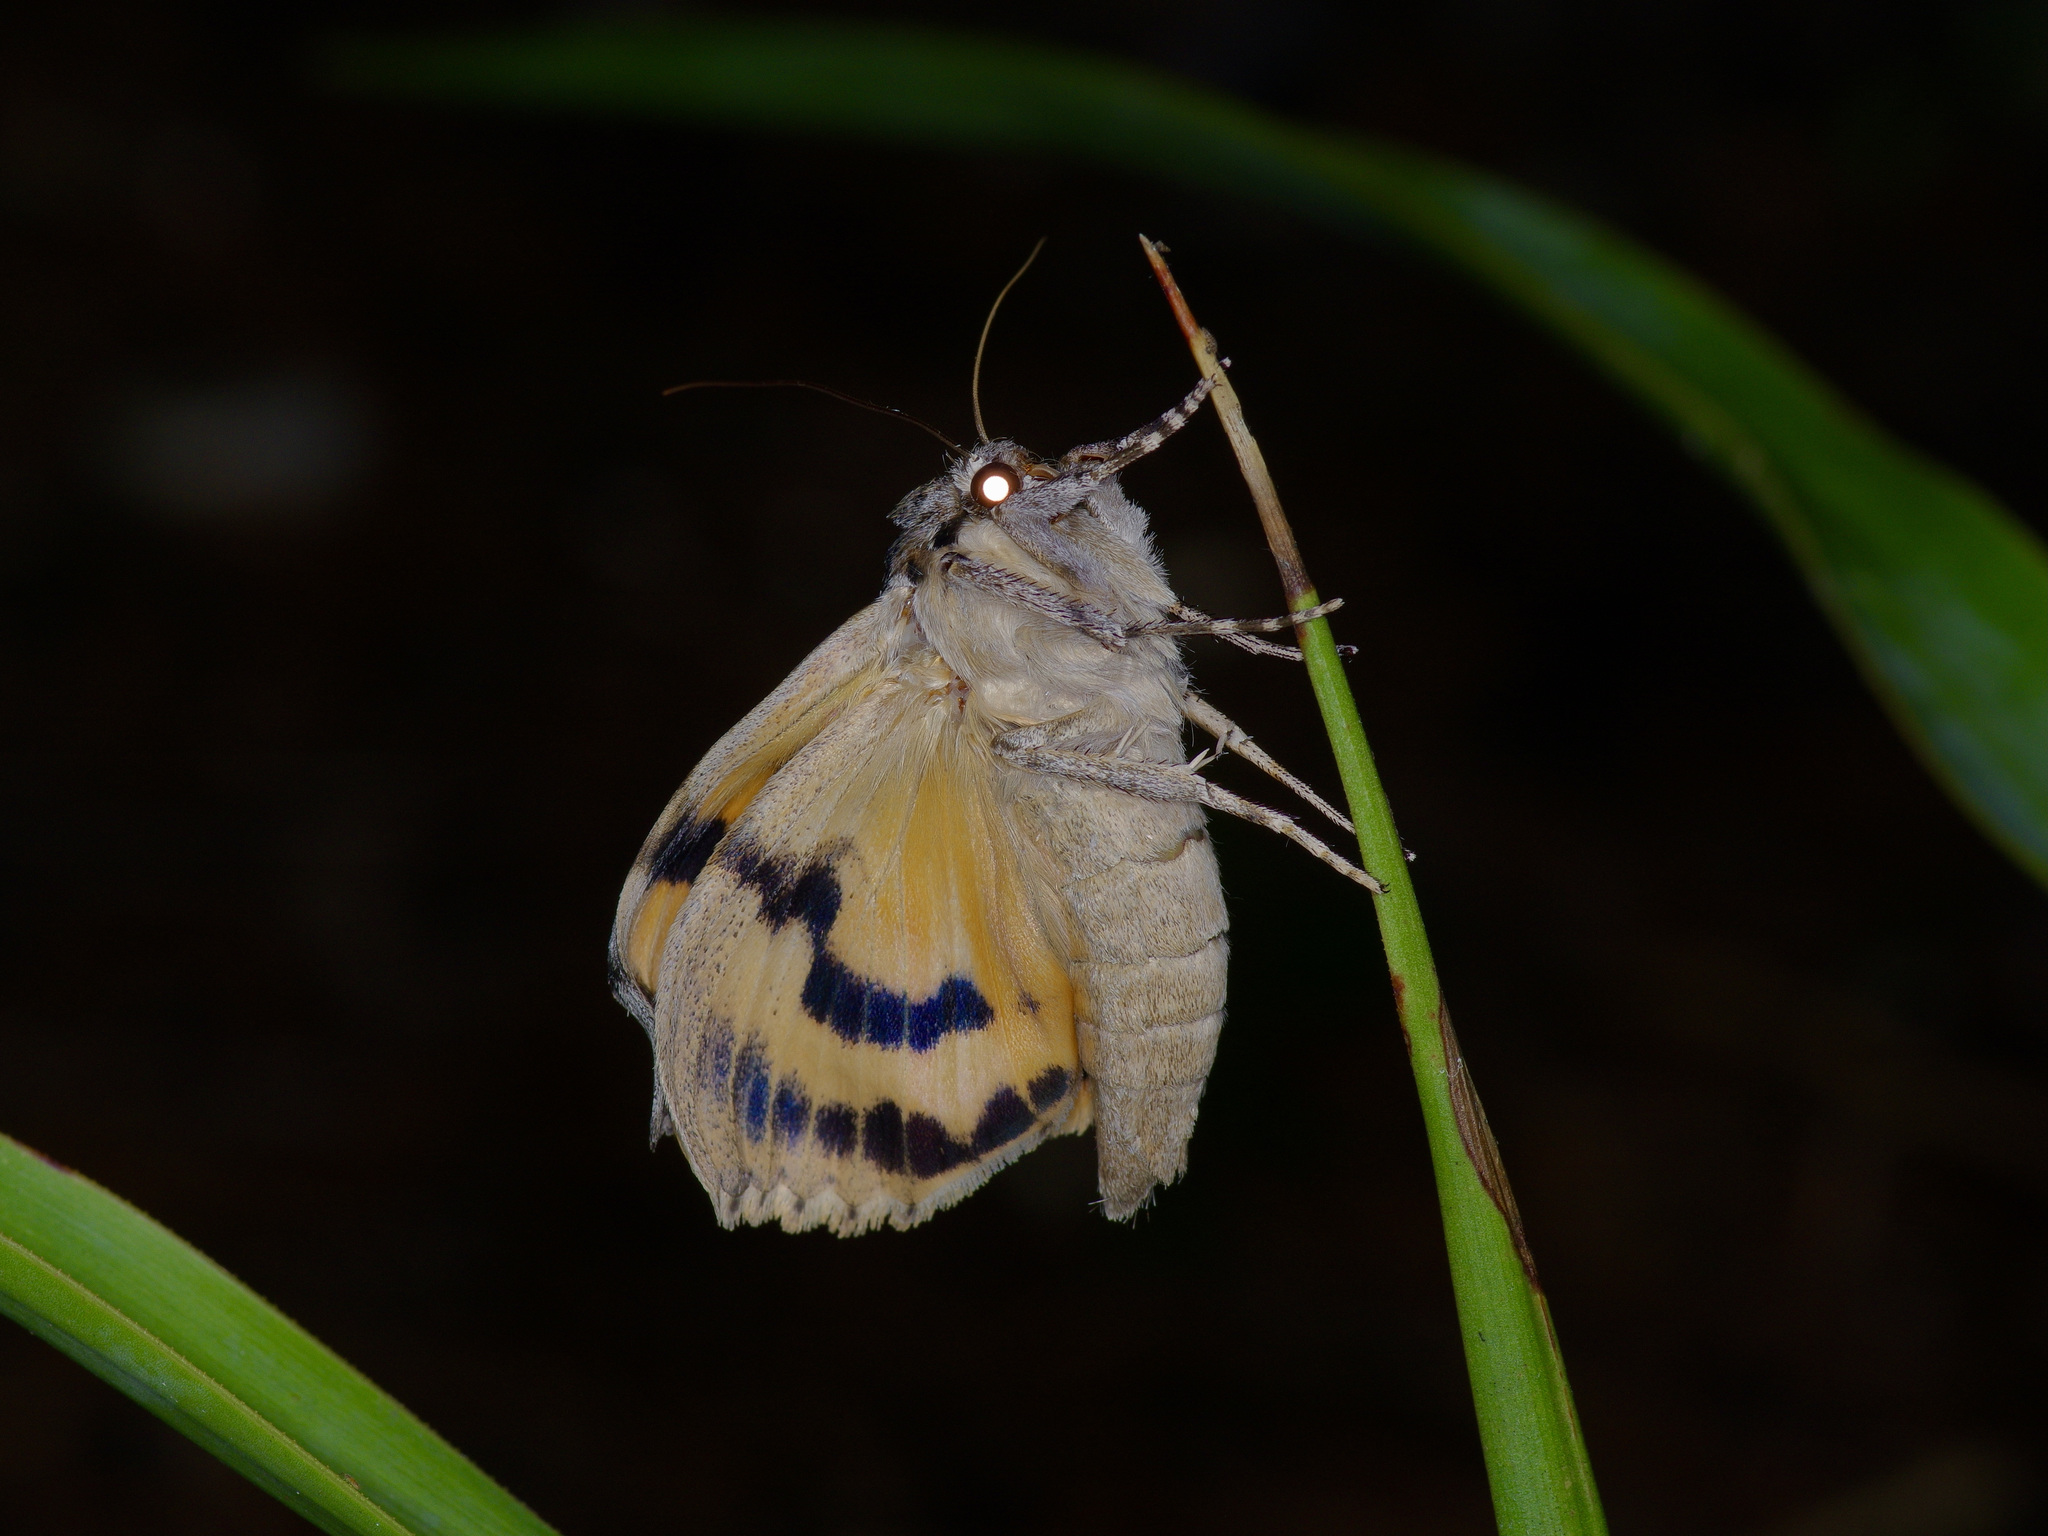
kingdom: Animalia
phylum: Arthropoda
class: Insecta
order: Lepidoptera
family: Erebidae
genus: Catocala
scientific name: Catocala neogama
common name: Bride underwing
